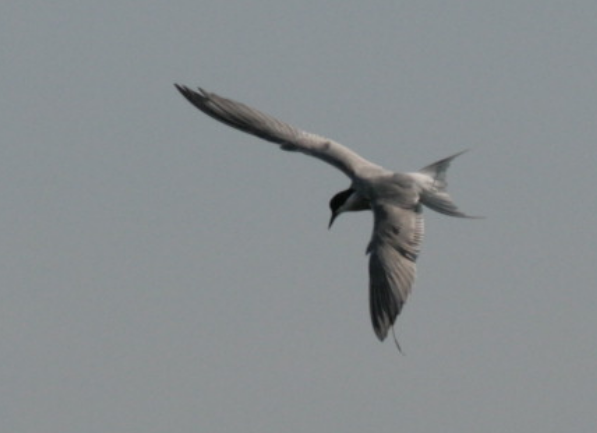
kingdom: Animalia
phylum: Chordata
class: Aves
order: Charadriiformes
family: Laridae
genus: Sterna
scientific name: Sterna hirundo
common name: Common tern
